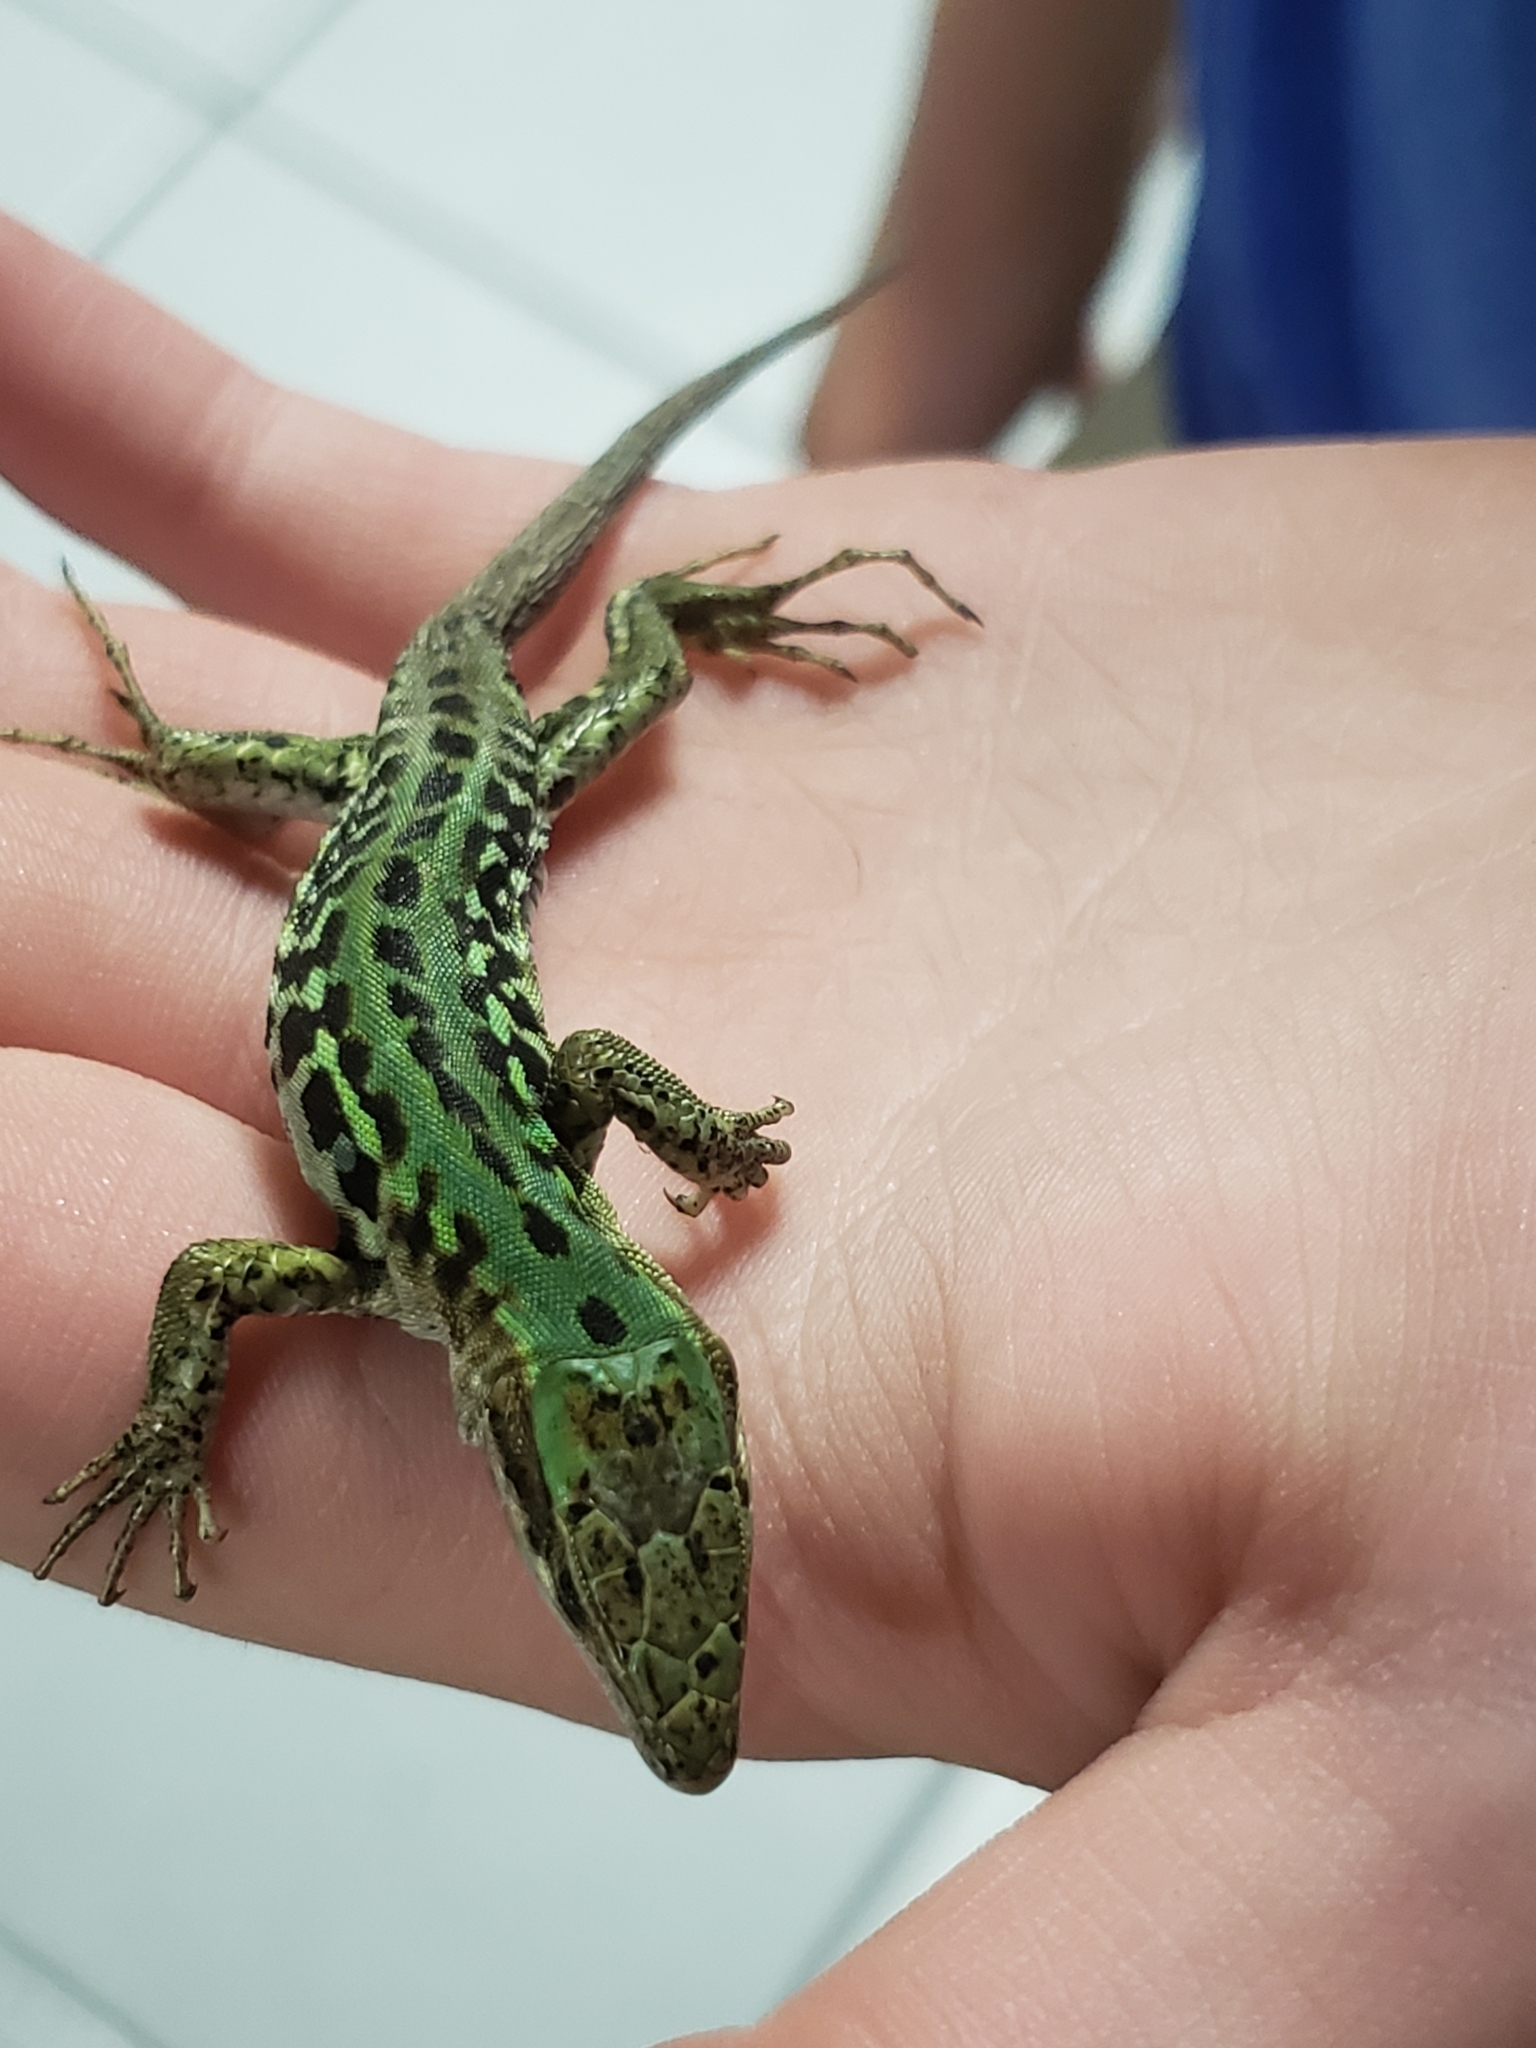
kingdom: Animalia
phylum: Chordata
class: Squamata
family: Lacertidae
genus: Podarcis
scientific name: Podarcis siculus
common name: Italian wall lizard
